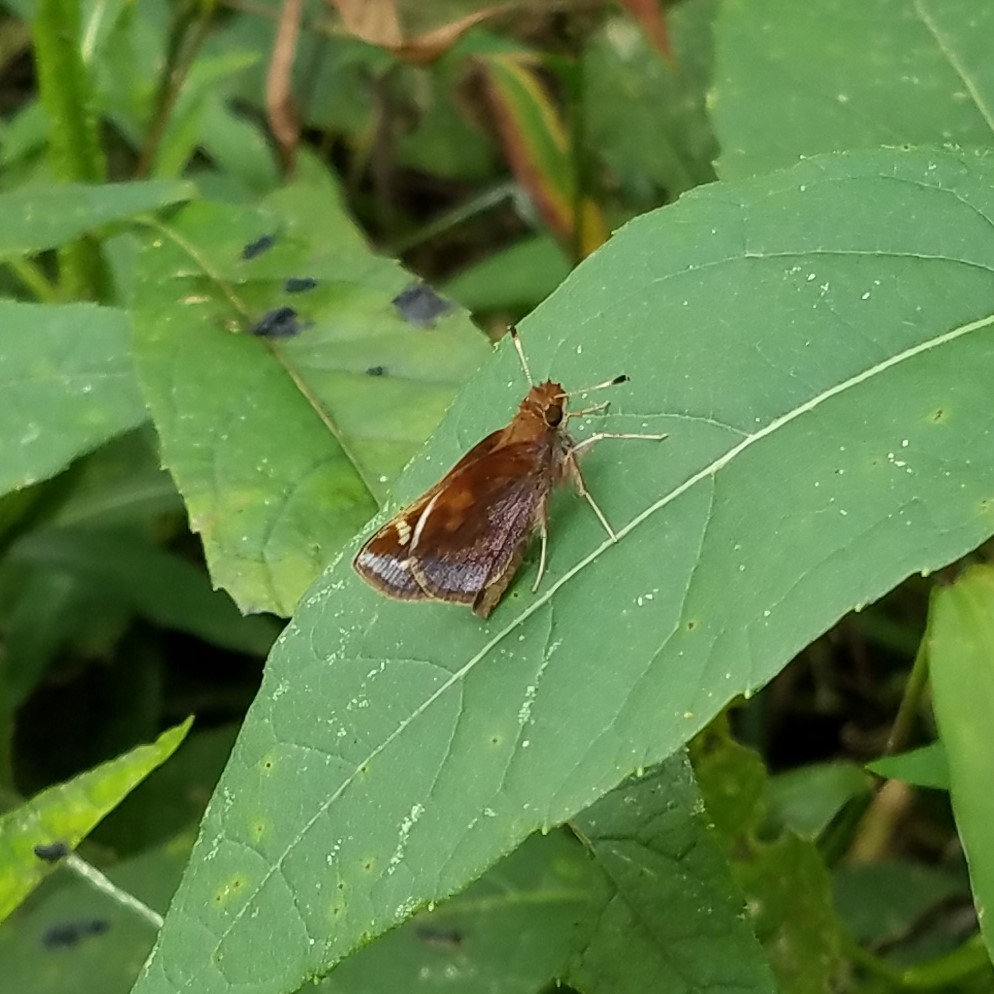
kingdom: Animalia
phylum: Arthropoda
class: Insecta
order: Lepidoptera
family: Hesperiidae
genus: Lon
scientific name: Lon zabulon
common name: Zabulon skipper
